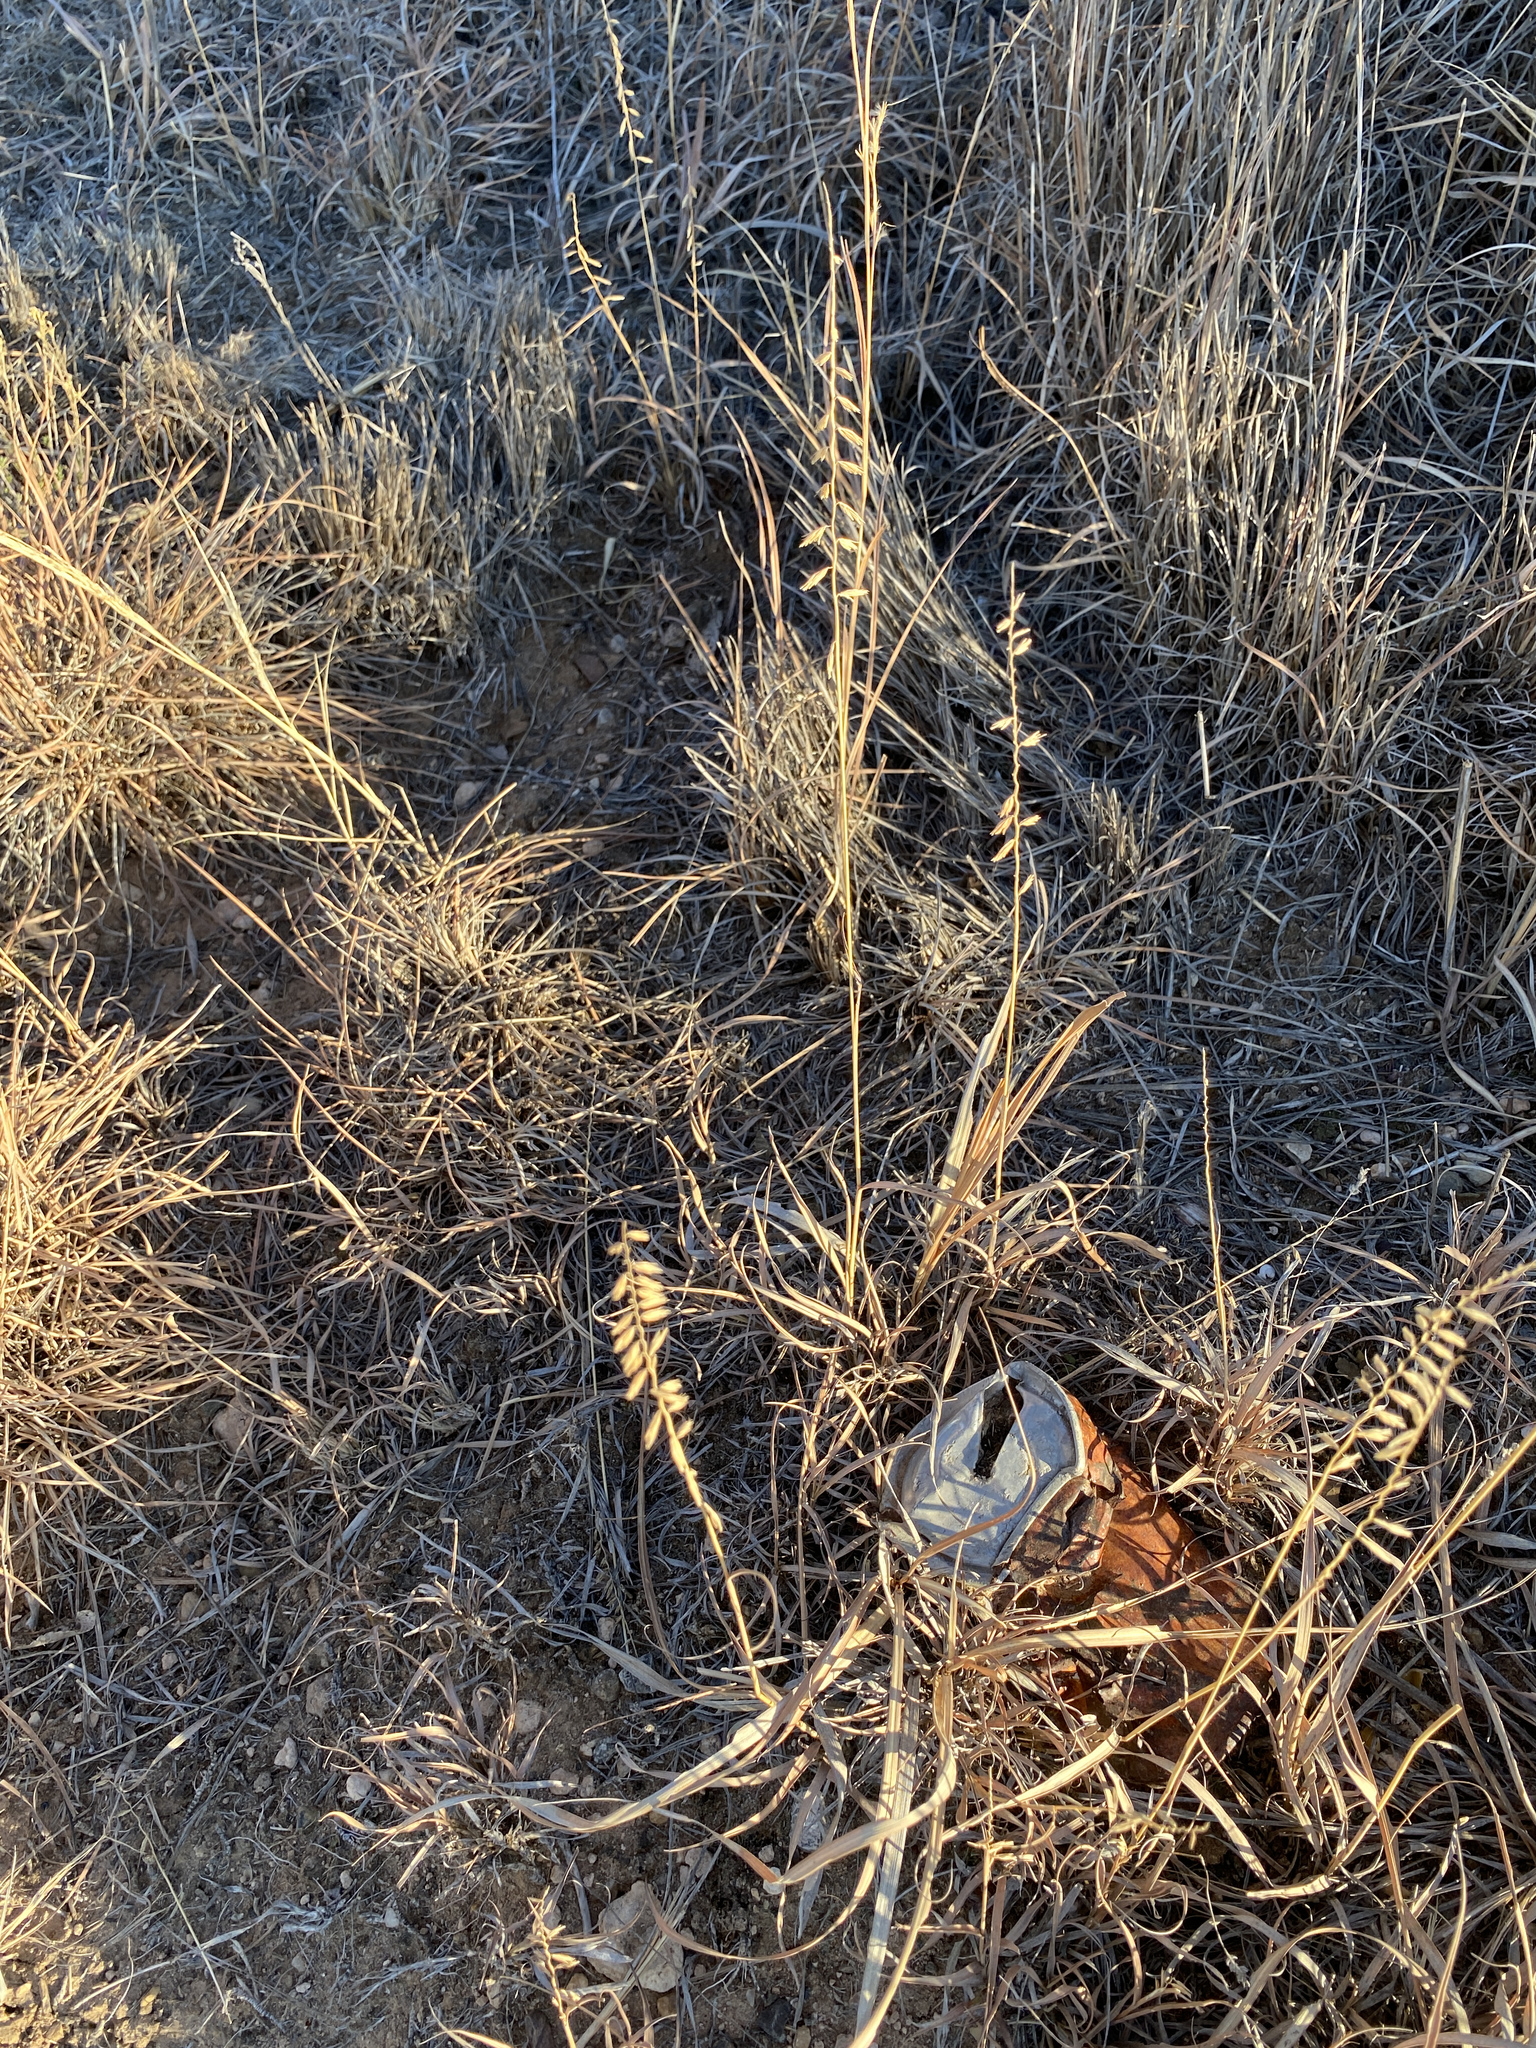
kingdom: Plantae
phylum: Tracheophyta
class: Liliopsida
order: Poales
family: Poaceae
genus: Bouteloua
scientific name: Bouteloua curtipendula
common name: Side-oats grama
